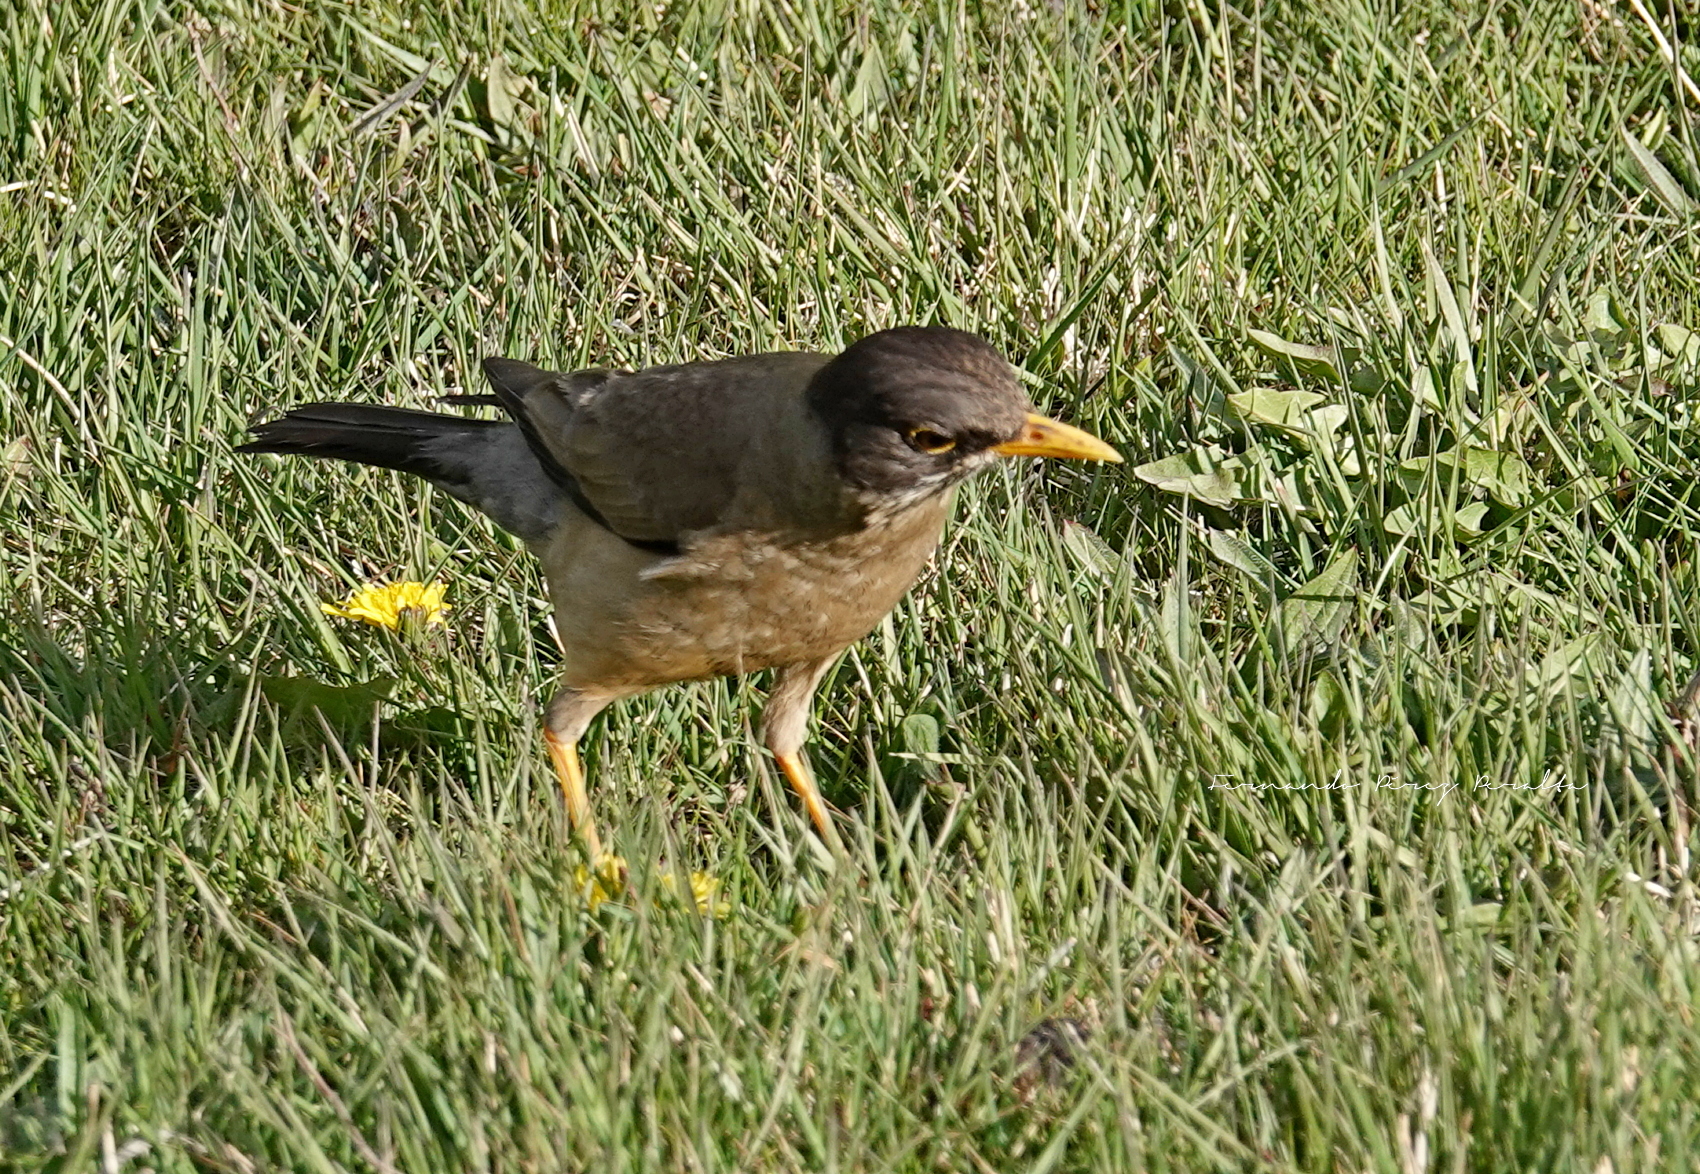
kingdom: Animalia
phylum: Chordata
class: Aves
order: Passeriformes
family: Turdidae
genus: Turdus
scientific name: Turdus falcklandii
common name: Austral thrush
